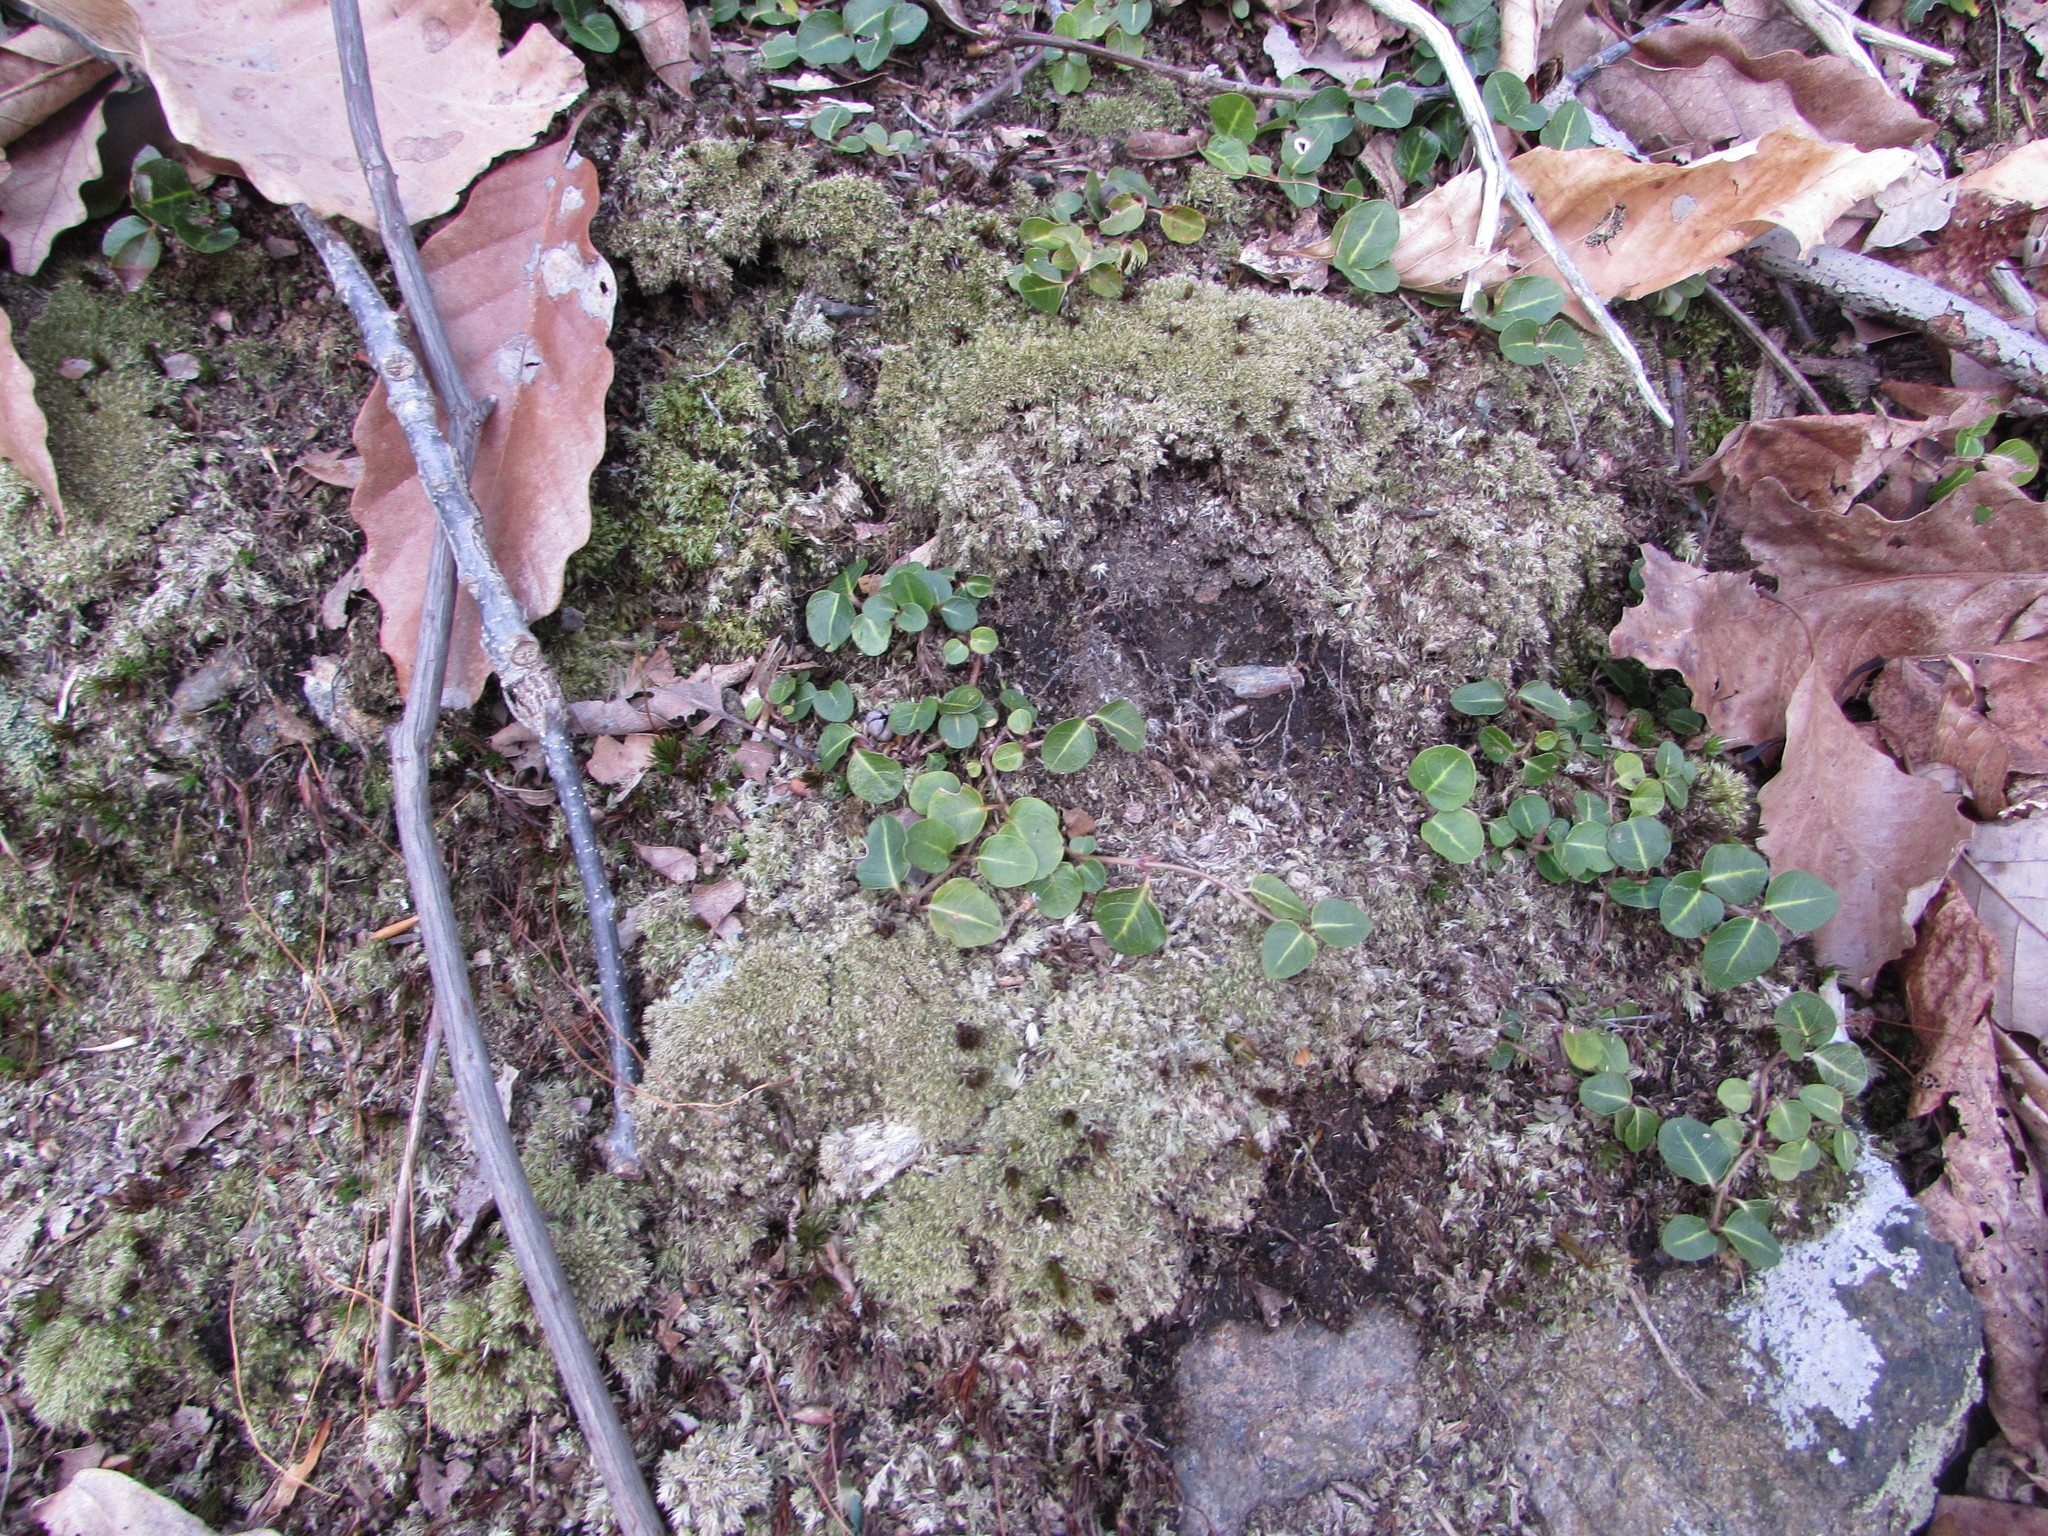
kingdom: Plantae
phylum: Tracheophyta
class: Magnoliopsida
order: Gentianales
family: Rubiaceae
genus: Mitchella
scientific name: Mitchella repens
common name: Partridge-berry
